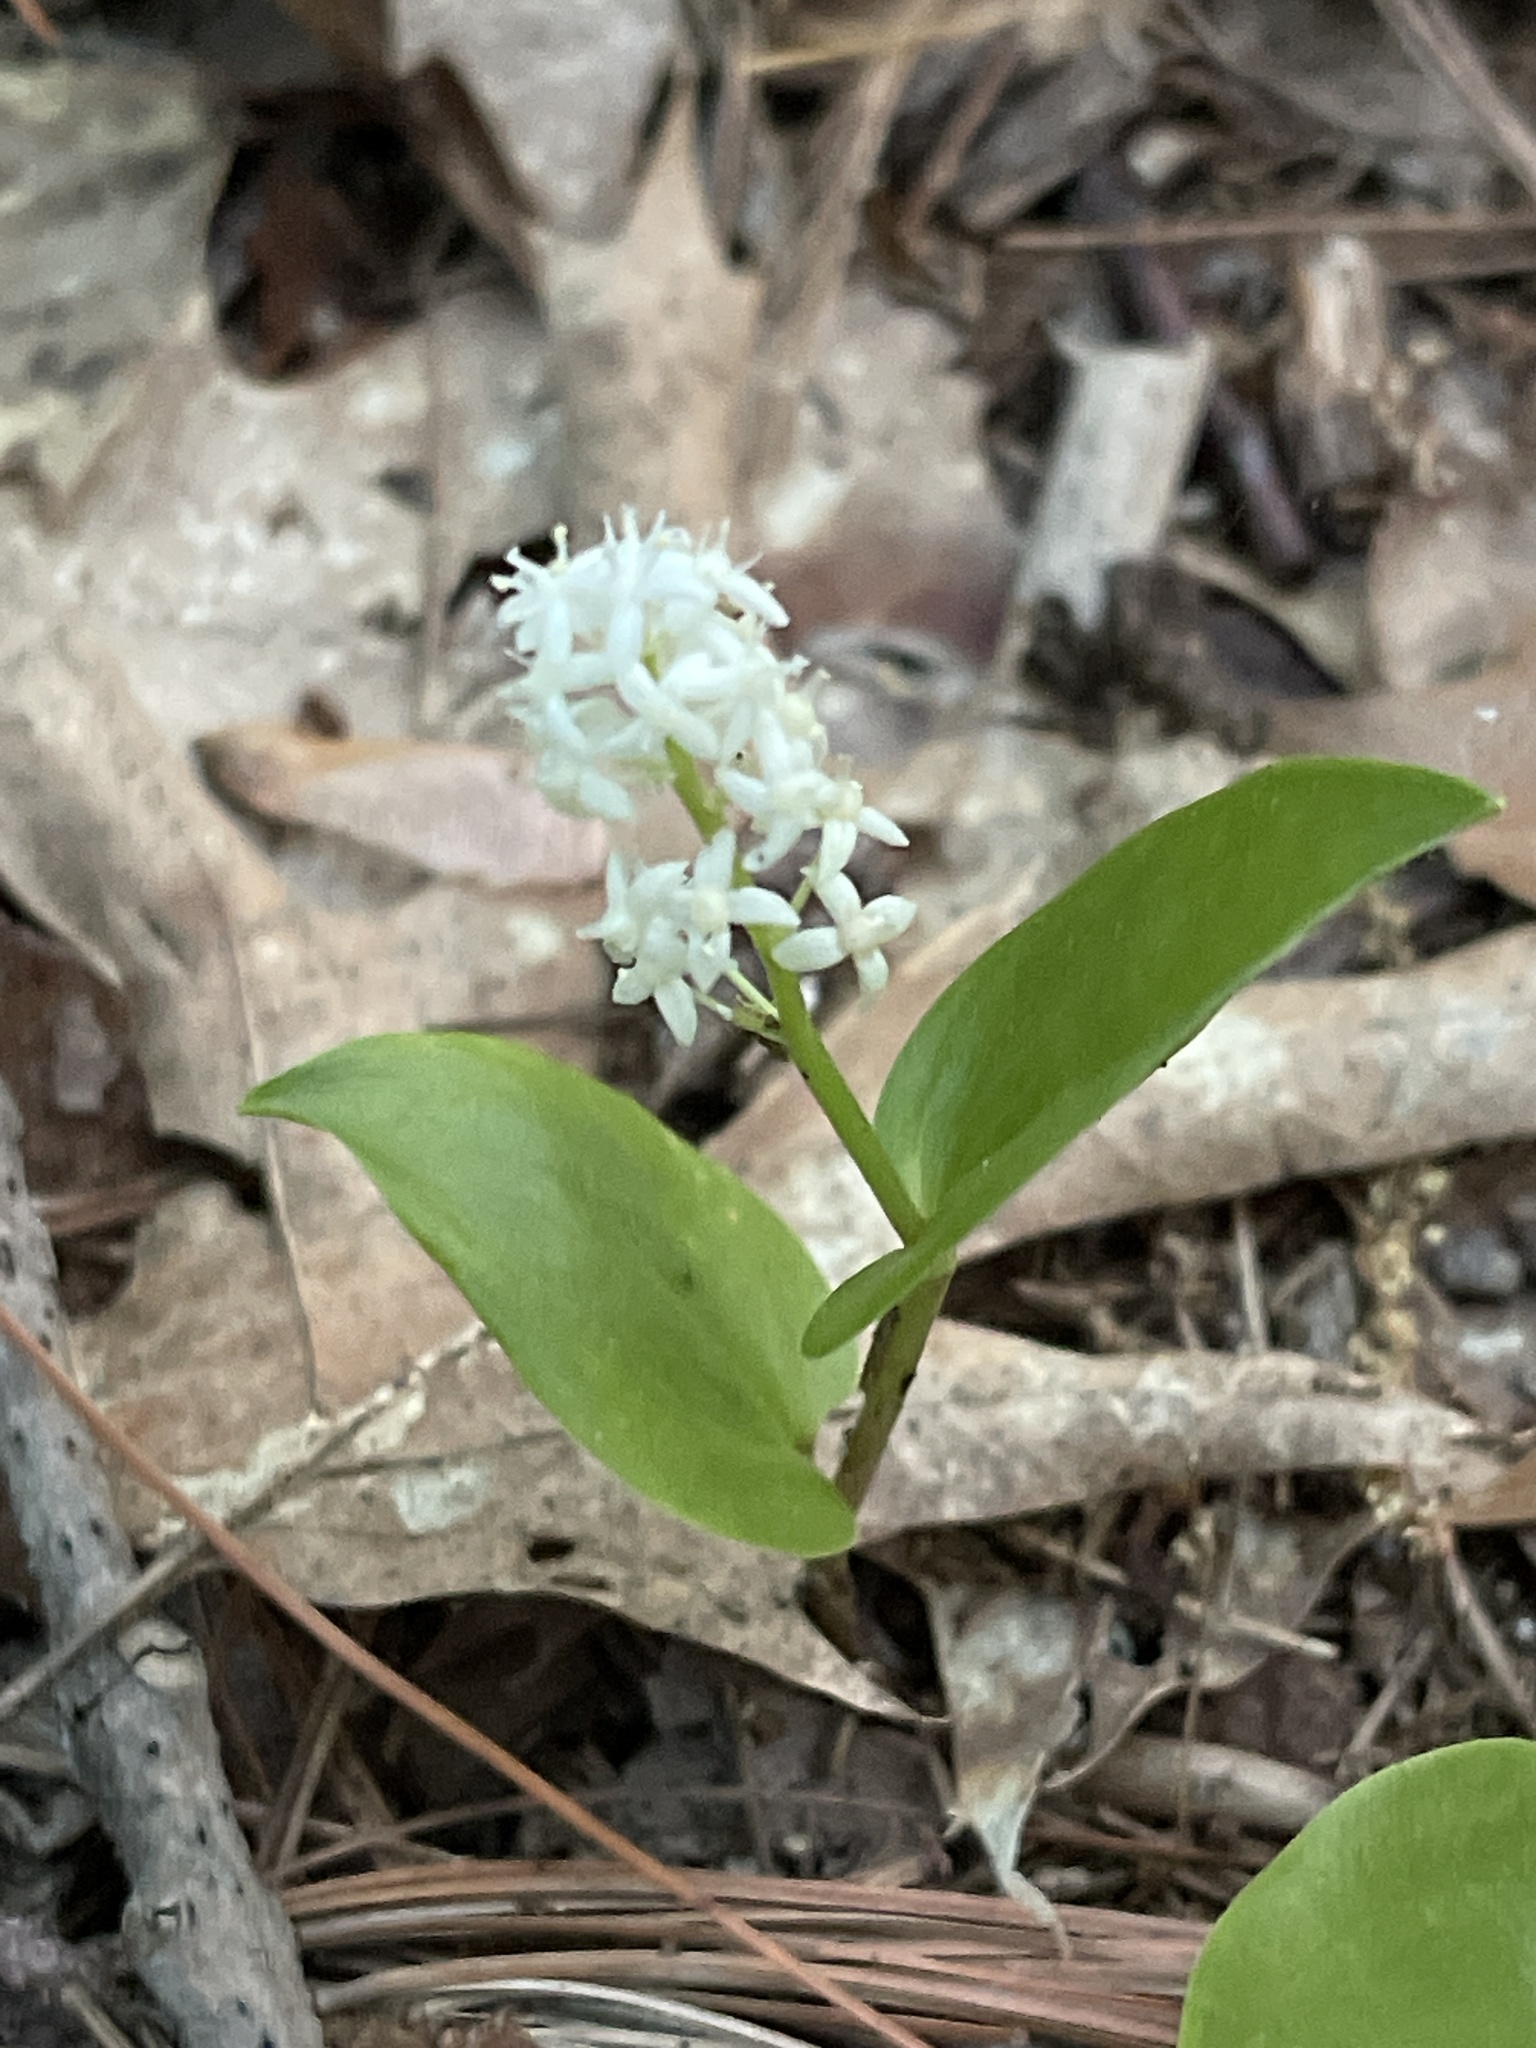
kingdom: Plantae
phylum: Tracheophyta
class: Liliopsida
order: Asparagales
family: Asparagaceae
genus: Maianthemum
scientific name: Maianthemum canadense
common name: False lily-of-the-valley
